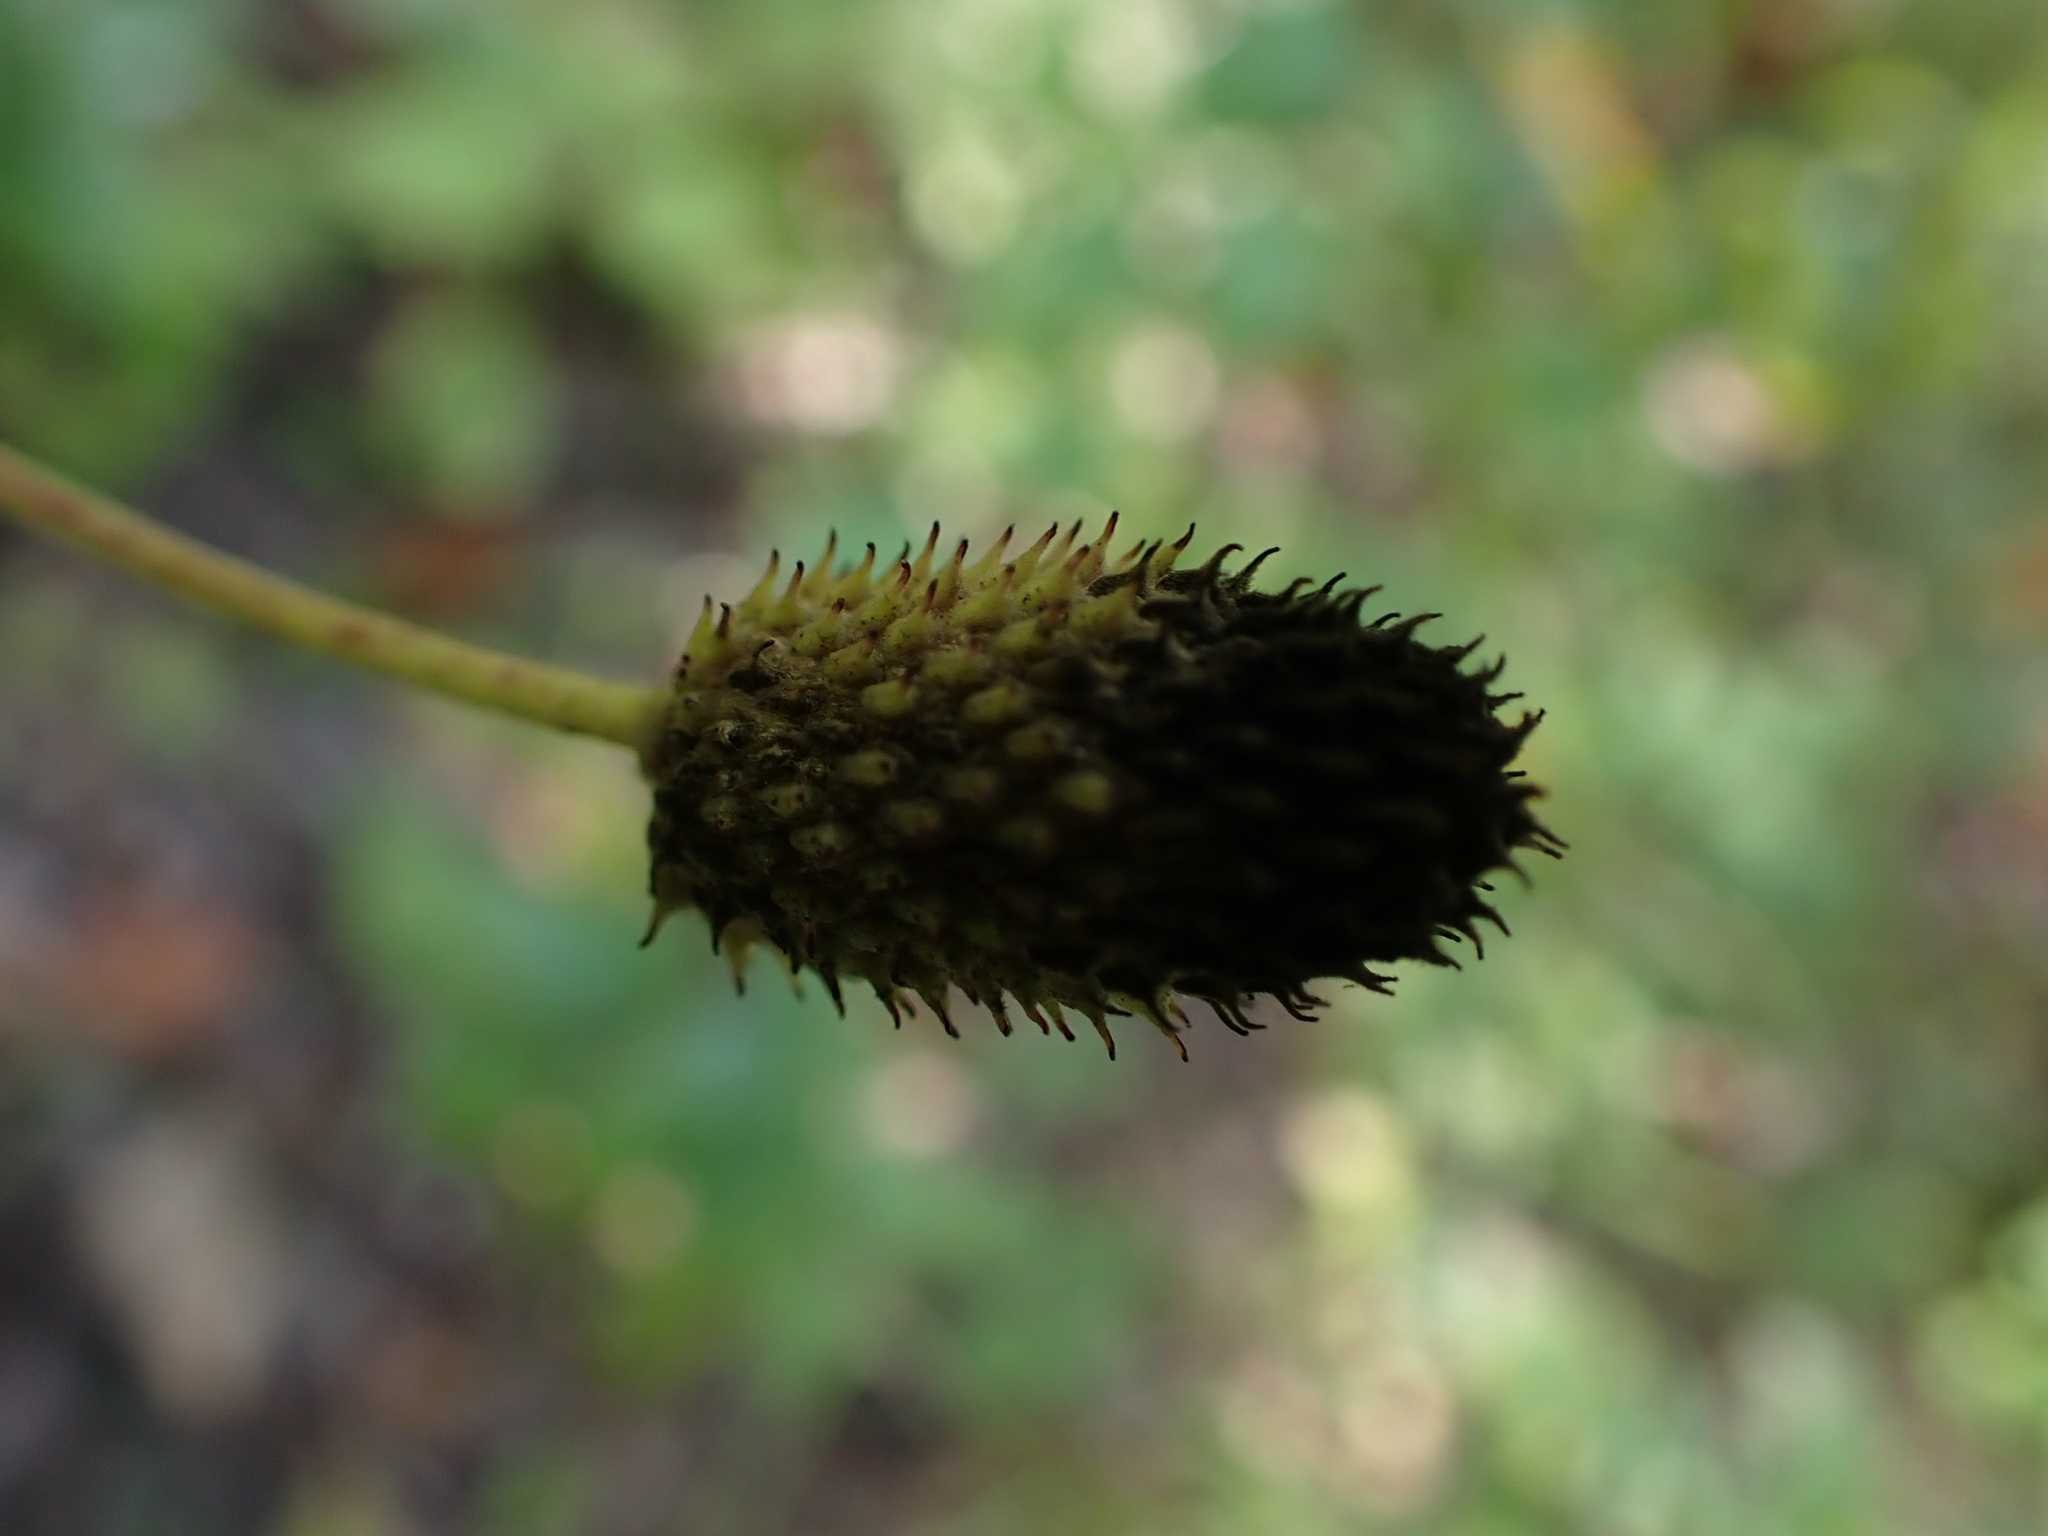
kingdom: Plantae
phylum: Tracheophyta
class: Magnoliopsida
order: Ranunculales
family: Ranunculaceae
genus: Anemone
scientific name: Anemone virginiana
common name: Tall anemone
